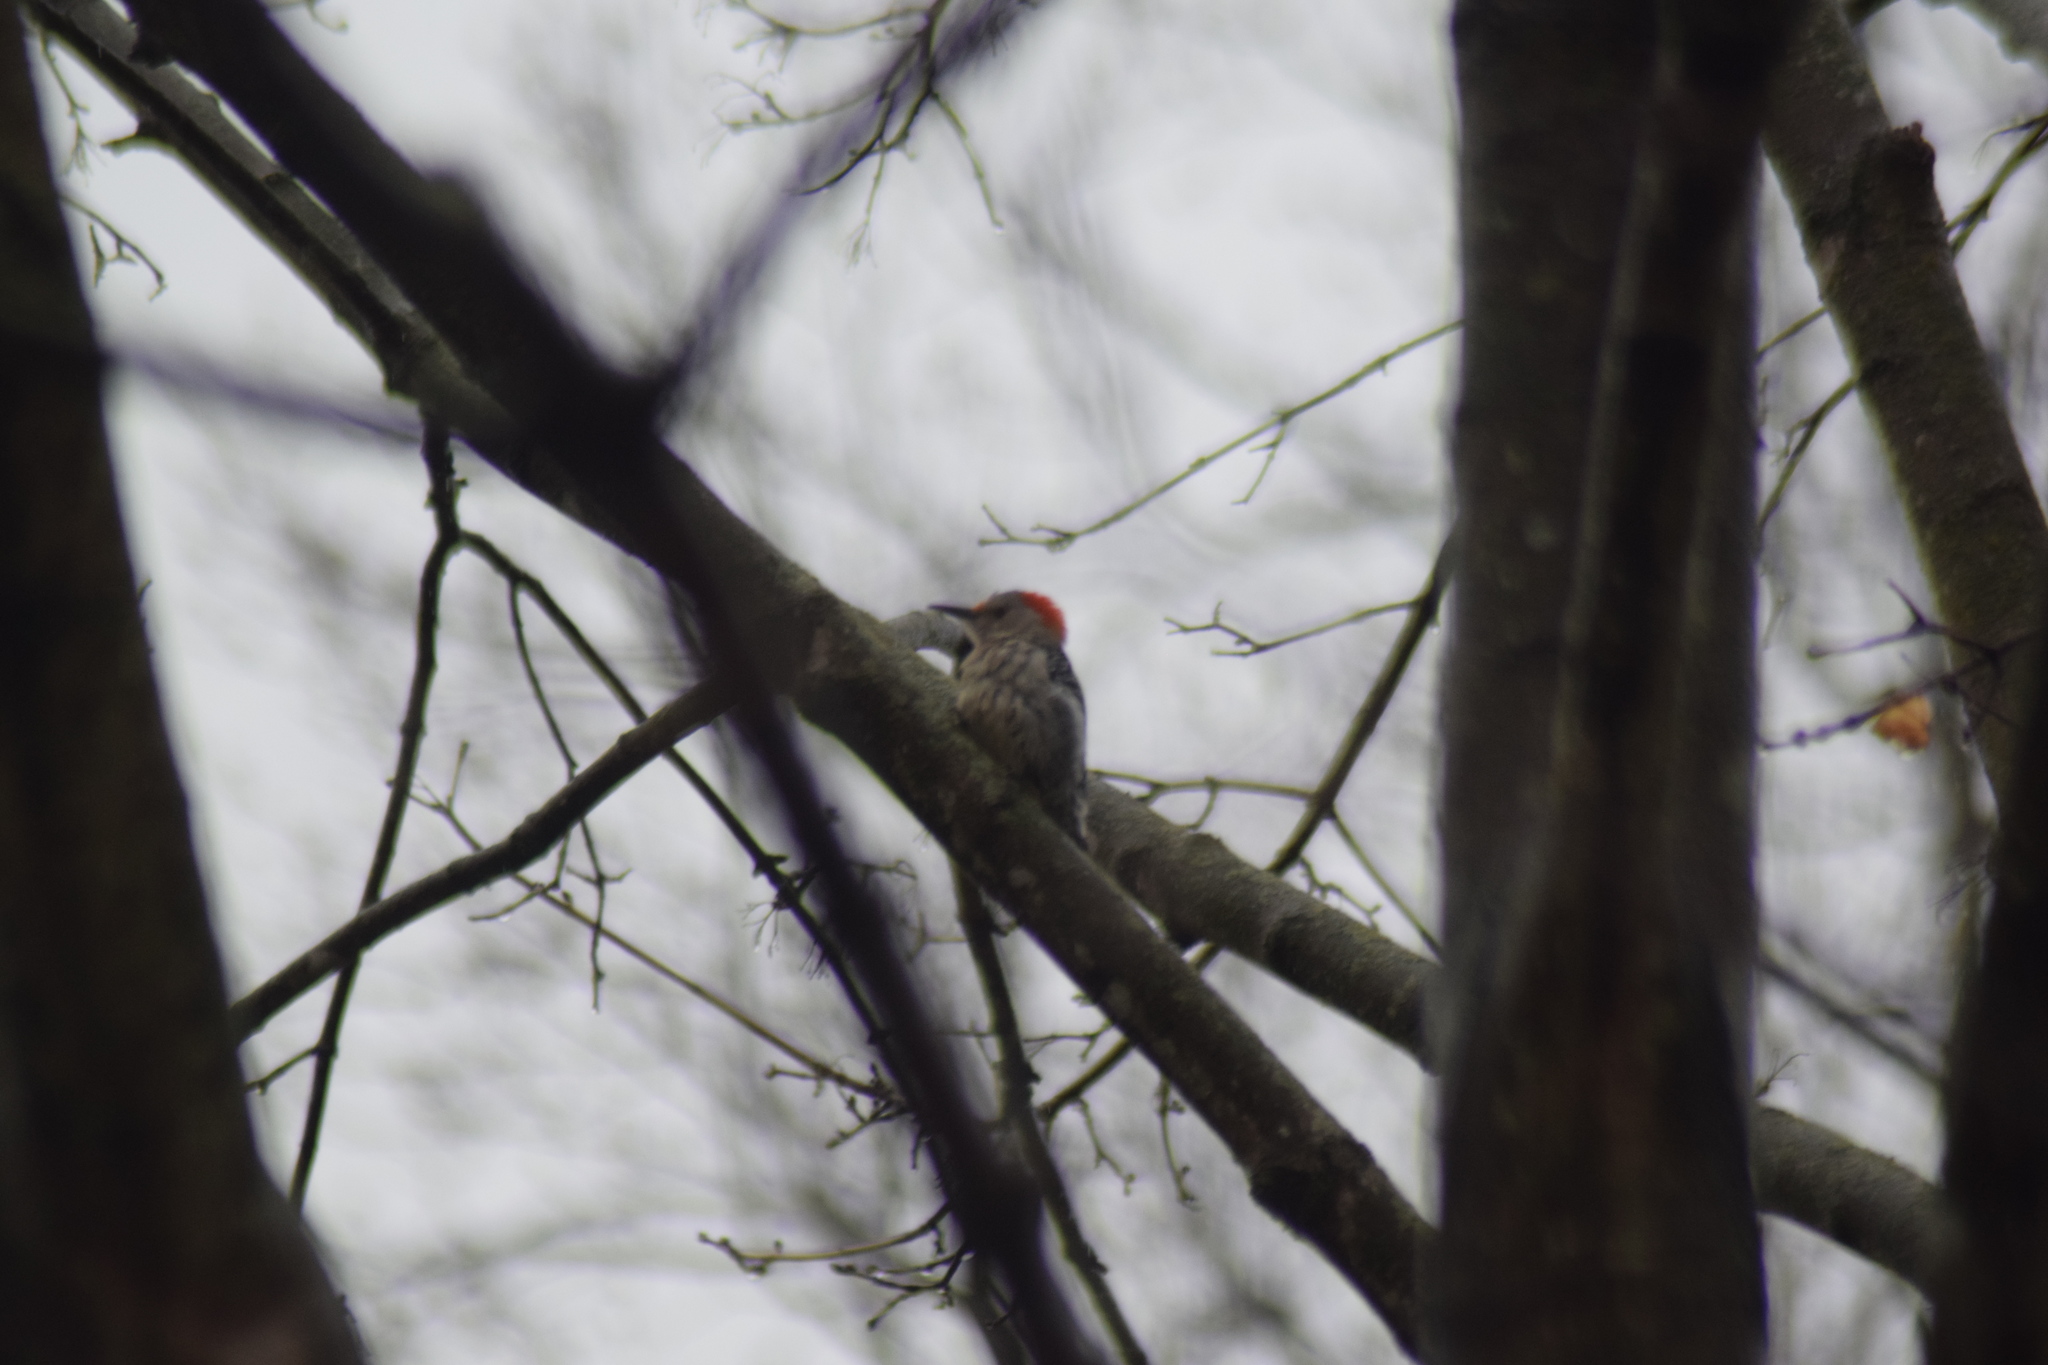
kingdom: Animalia
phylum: Chordata
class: Aves
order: Piciformes
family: Picidae
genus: Melanerpes
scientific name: Melanerpes carolinus
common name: Red-bellied woodpecker
